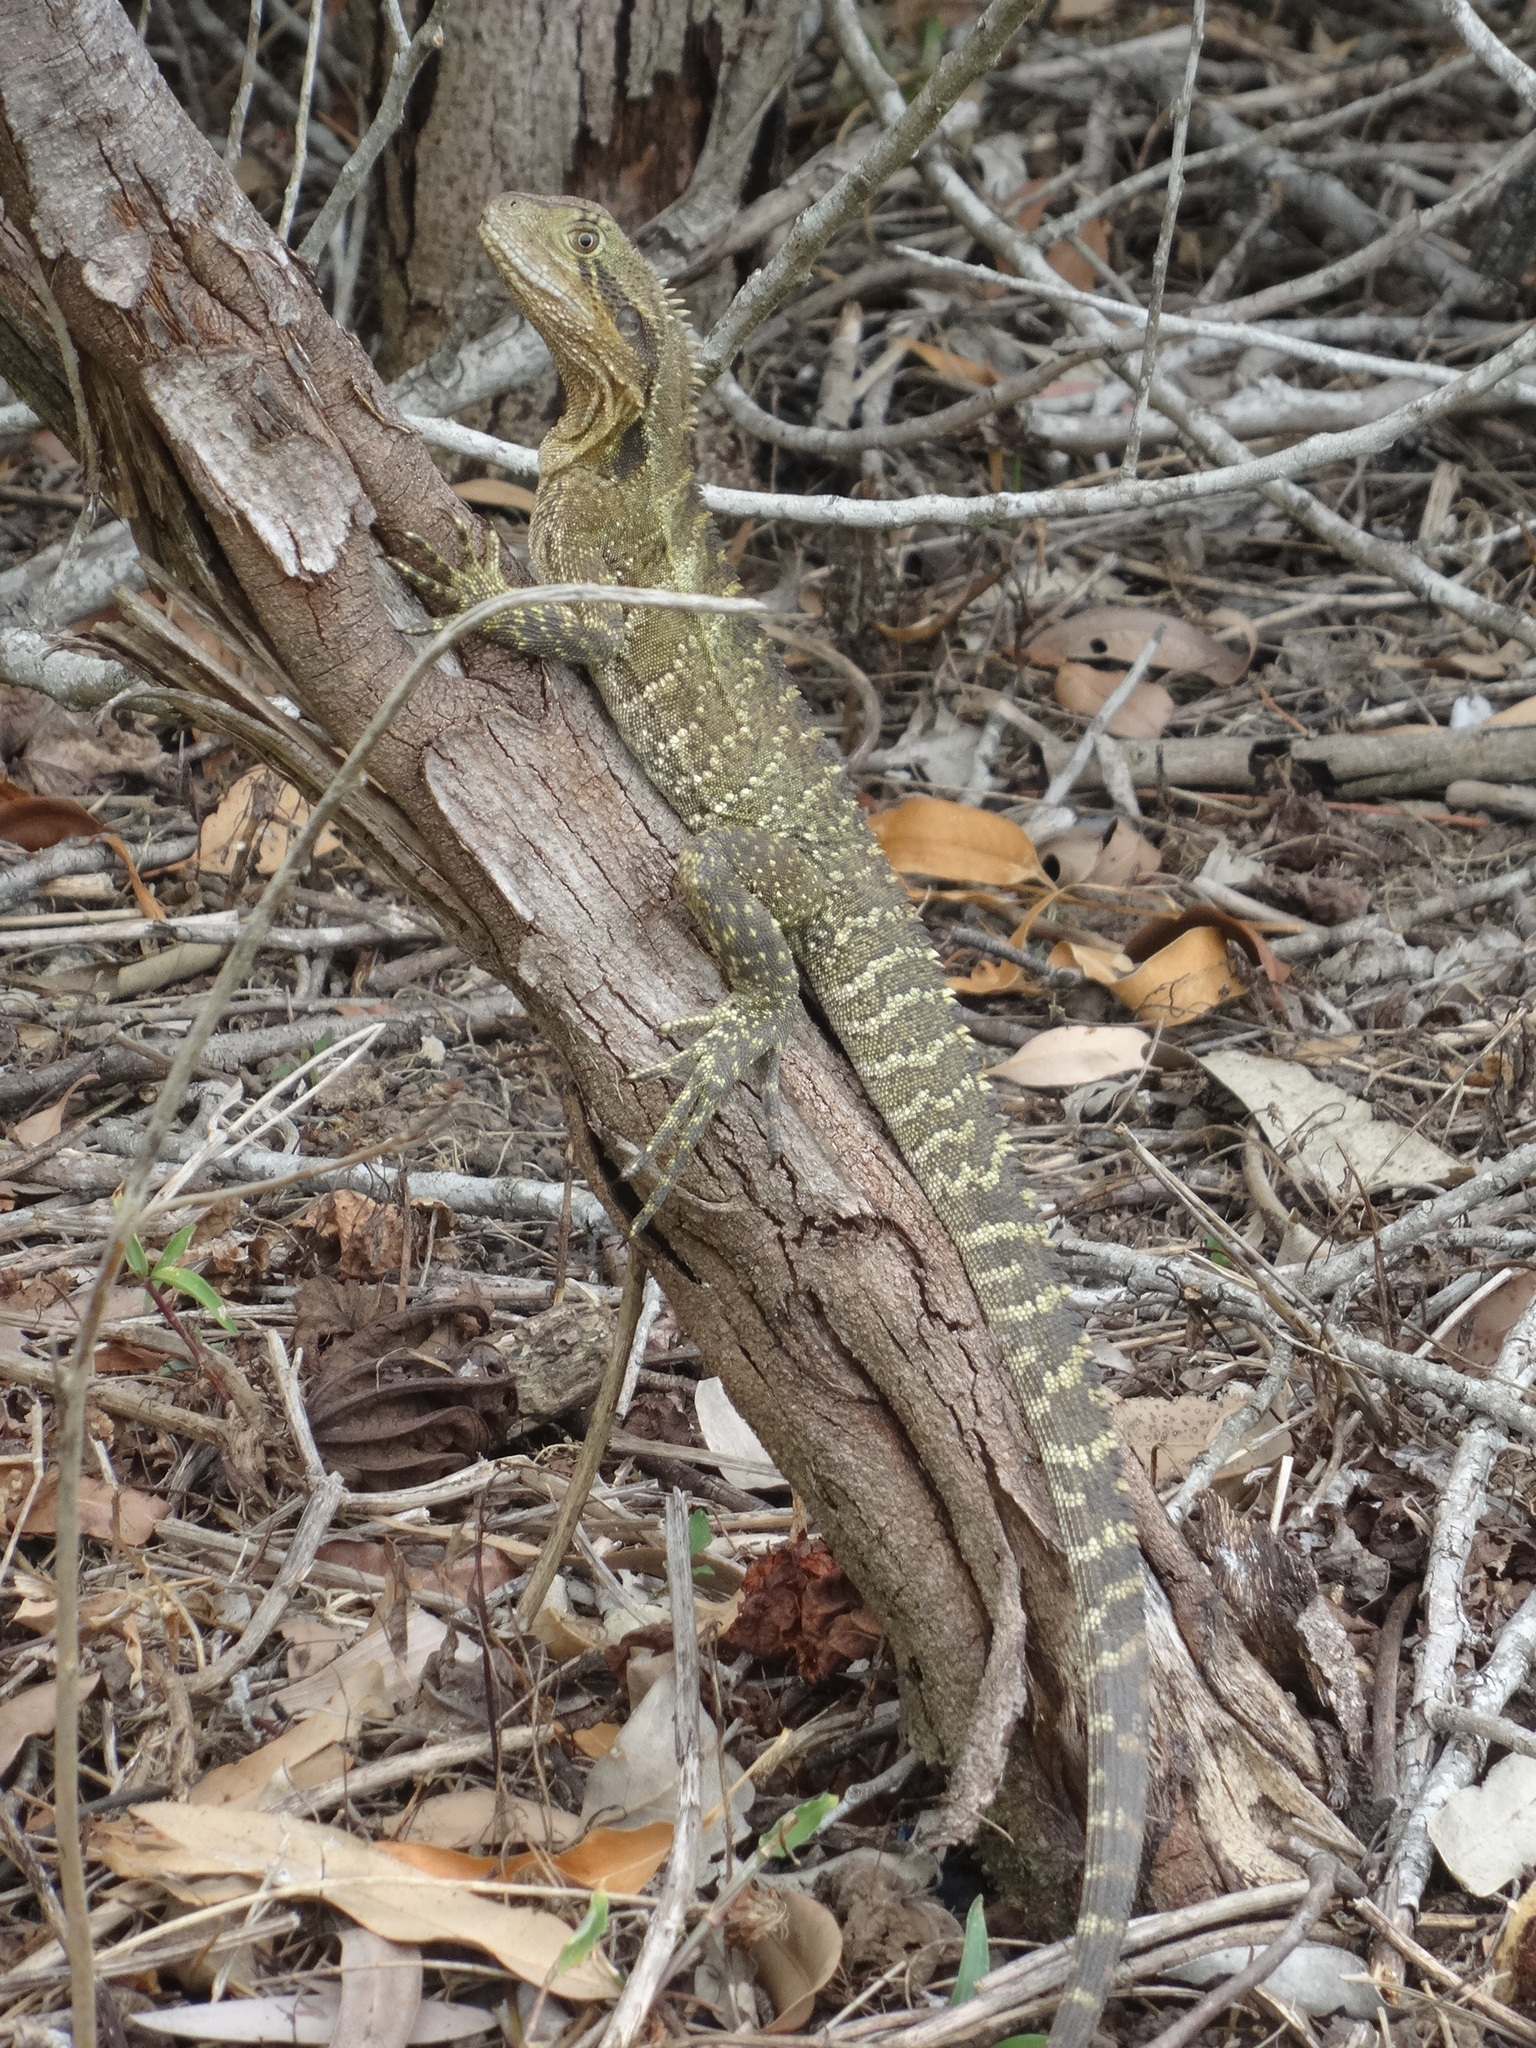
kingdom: Animalia
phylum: Chordata
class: Squamata
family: Agamidae
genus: Intellagama
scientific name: Intellagama lesueurii
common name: Eastern water dragon
